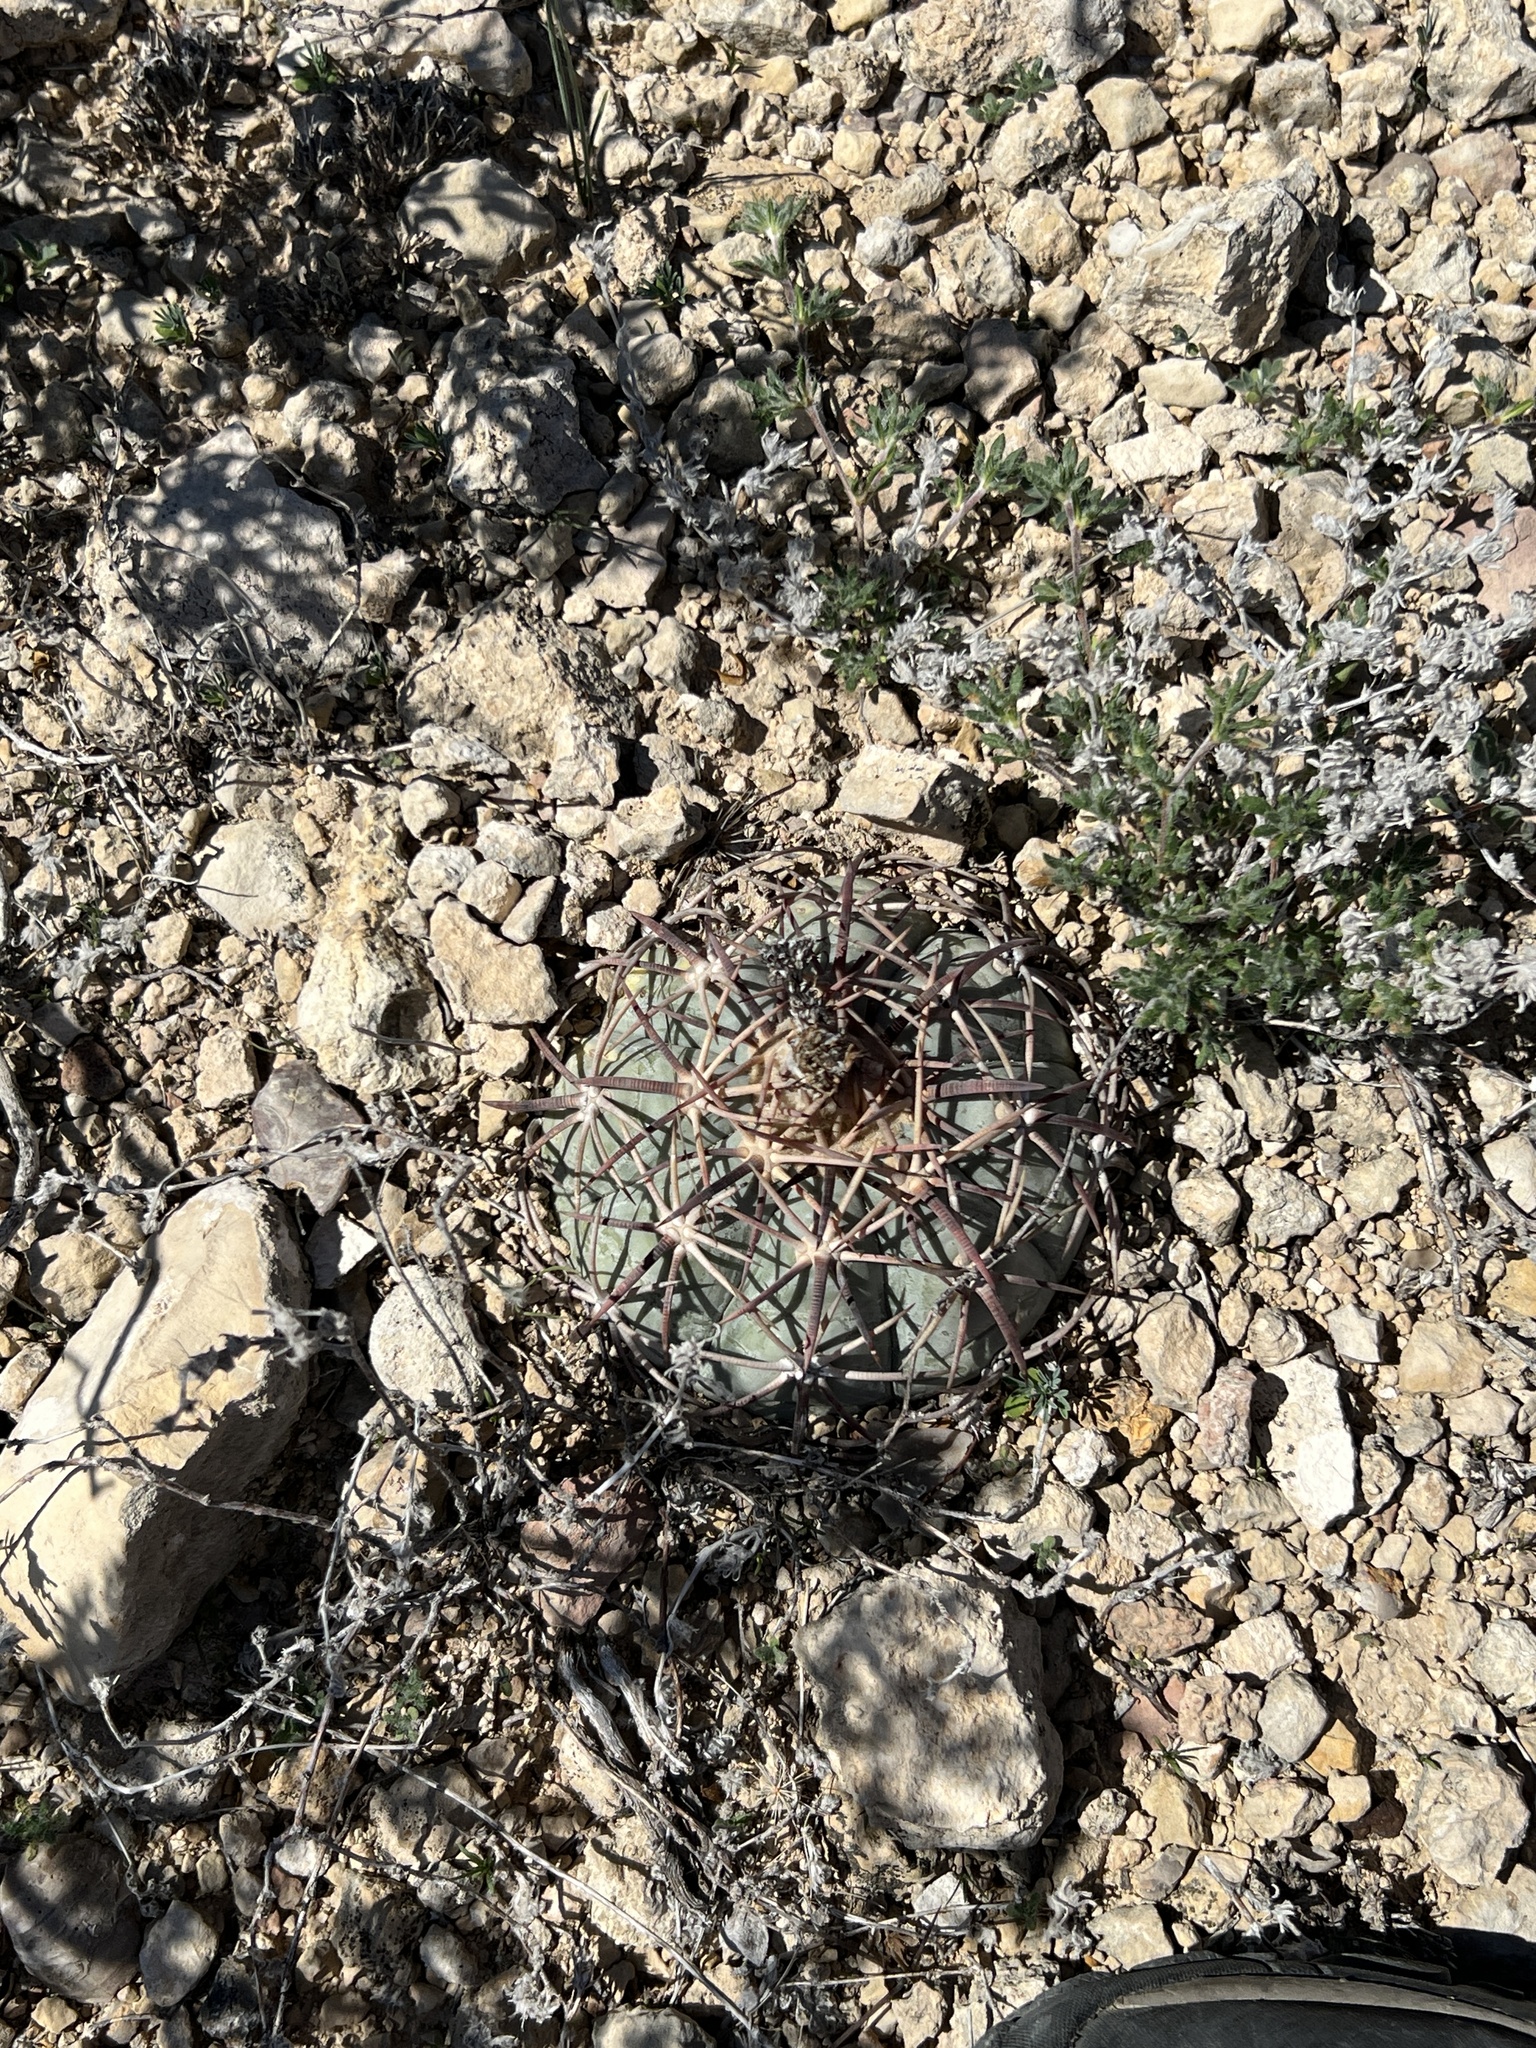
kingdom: Plantae
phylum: Tracheophyta
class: Magnoliopsida
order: Caryophyllales
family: Cactaceae
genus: Echinocactus
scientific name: Echinocactus horizonthalonius
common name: Devilshead
